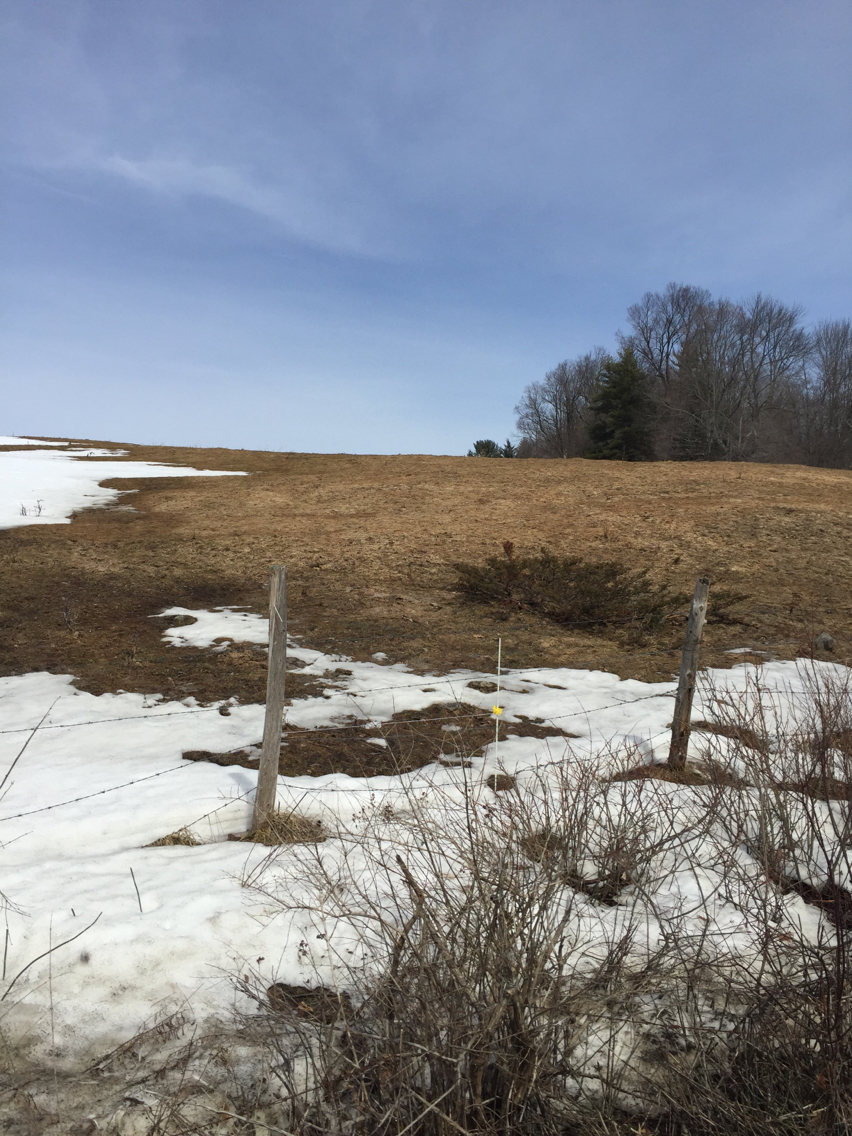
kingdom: Plantae
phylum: Tracheophyta
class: Pinopsida
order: Pinales
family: Cupressaceae
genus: Juniperus
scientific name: Juniperus communis
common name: Common juniper
